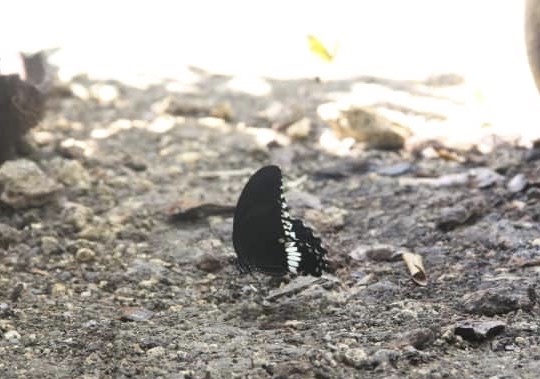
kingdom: Animalia
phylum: Arthropoda
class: Insecta
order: Lepidoptera
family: Papilionidae
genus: Papilio
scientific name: Papilio polytes
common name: Common mormon
